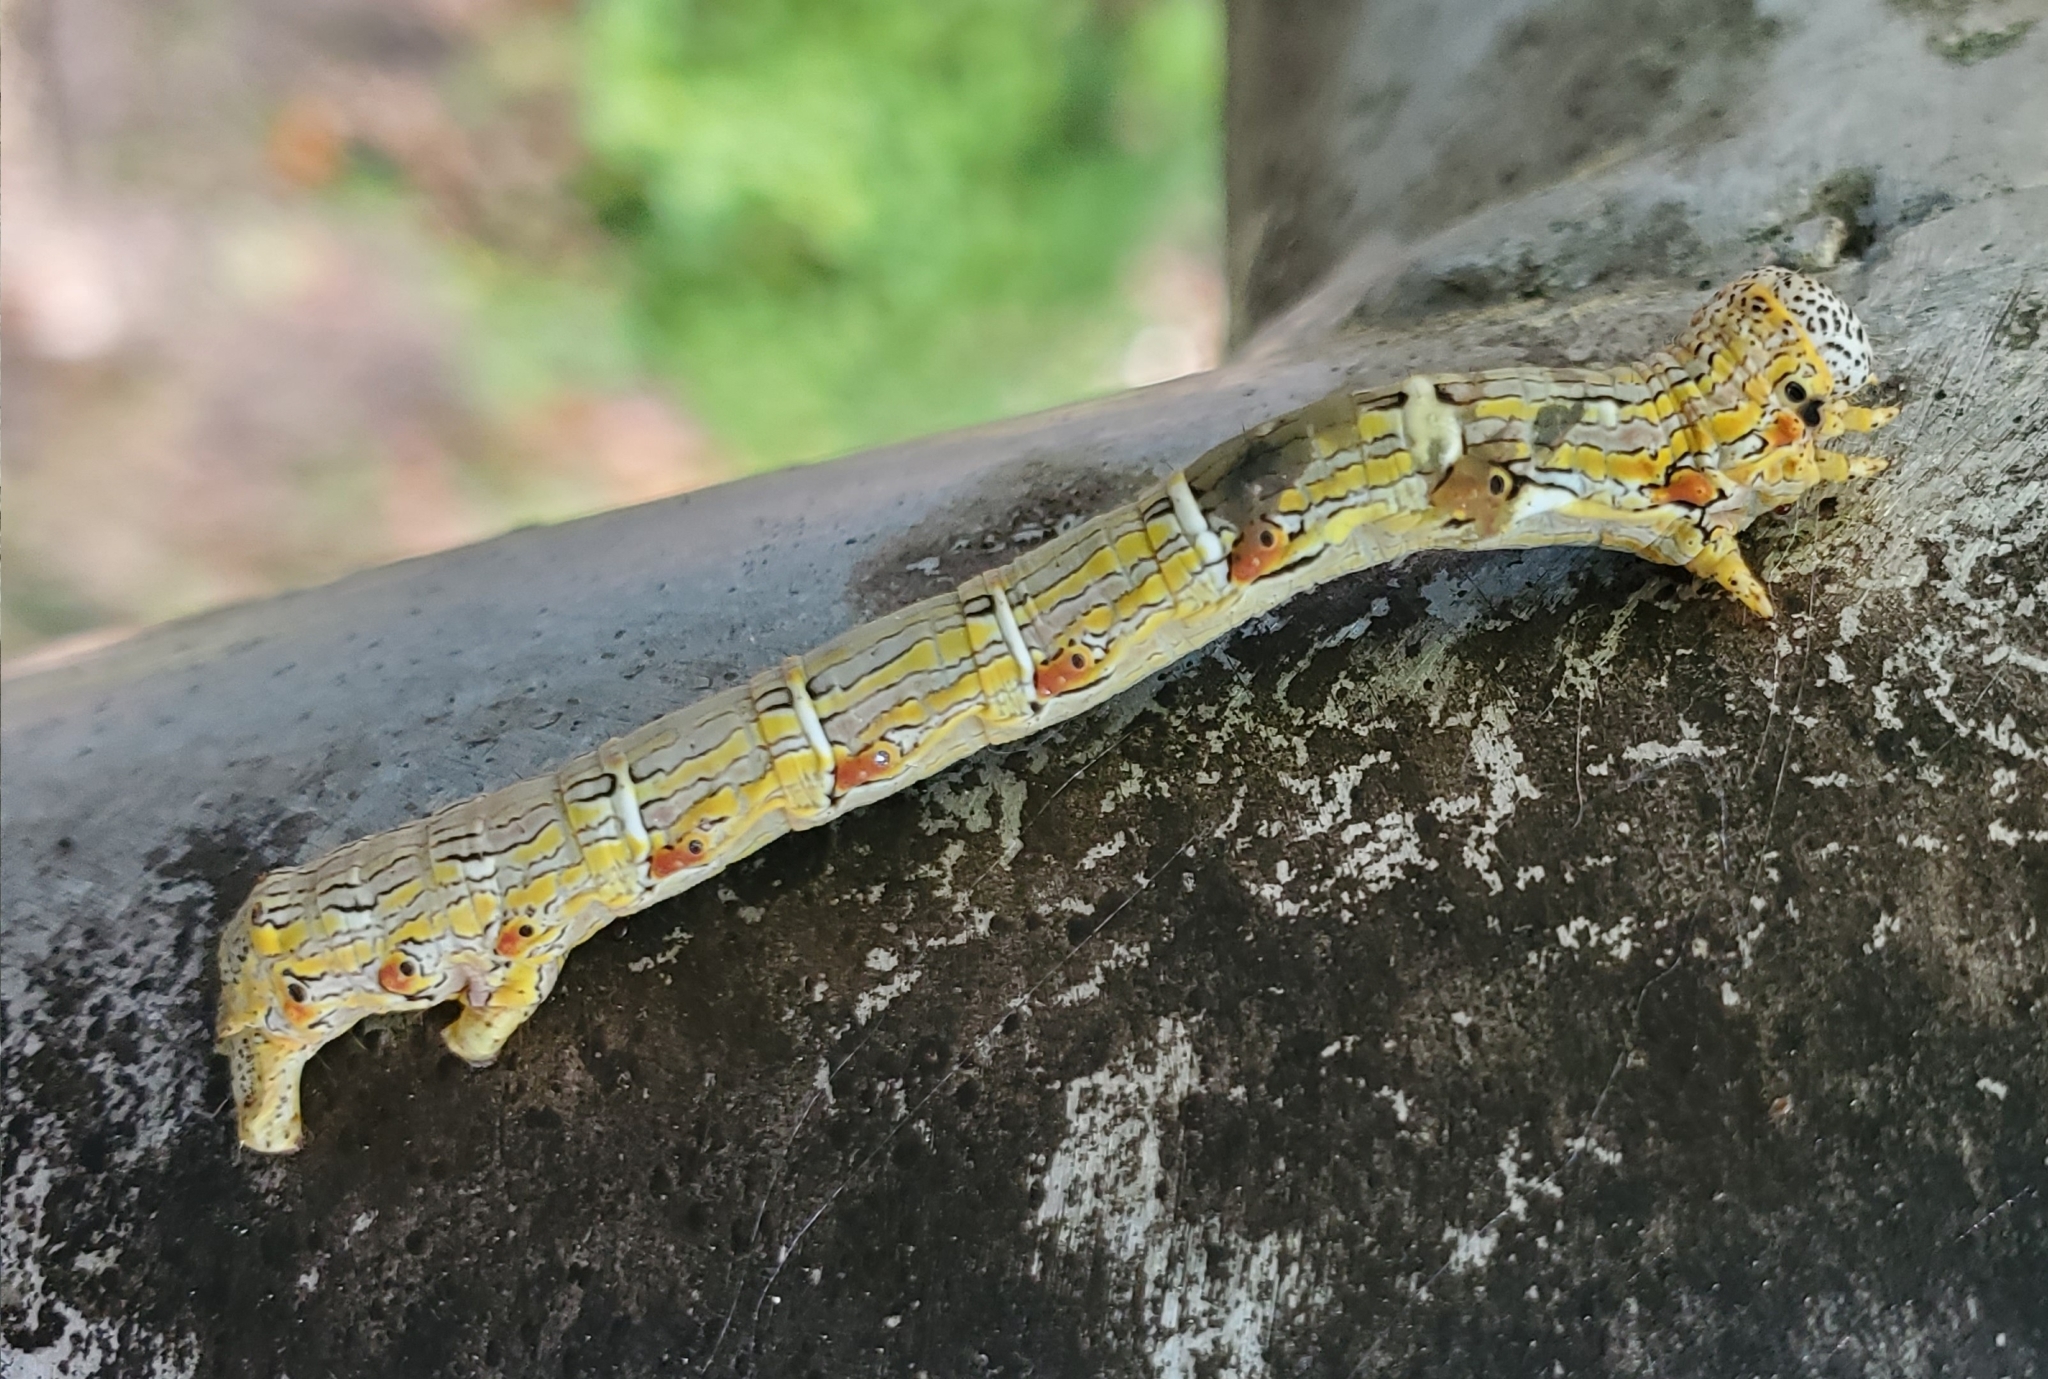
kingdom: Animalia
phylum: Arthropoda
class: Insecta
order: Lepidoptera
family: Geometridae
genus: Lycia
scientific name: Lycia ypsilon
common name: Wooly gray
